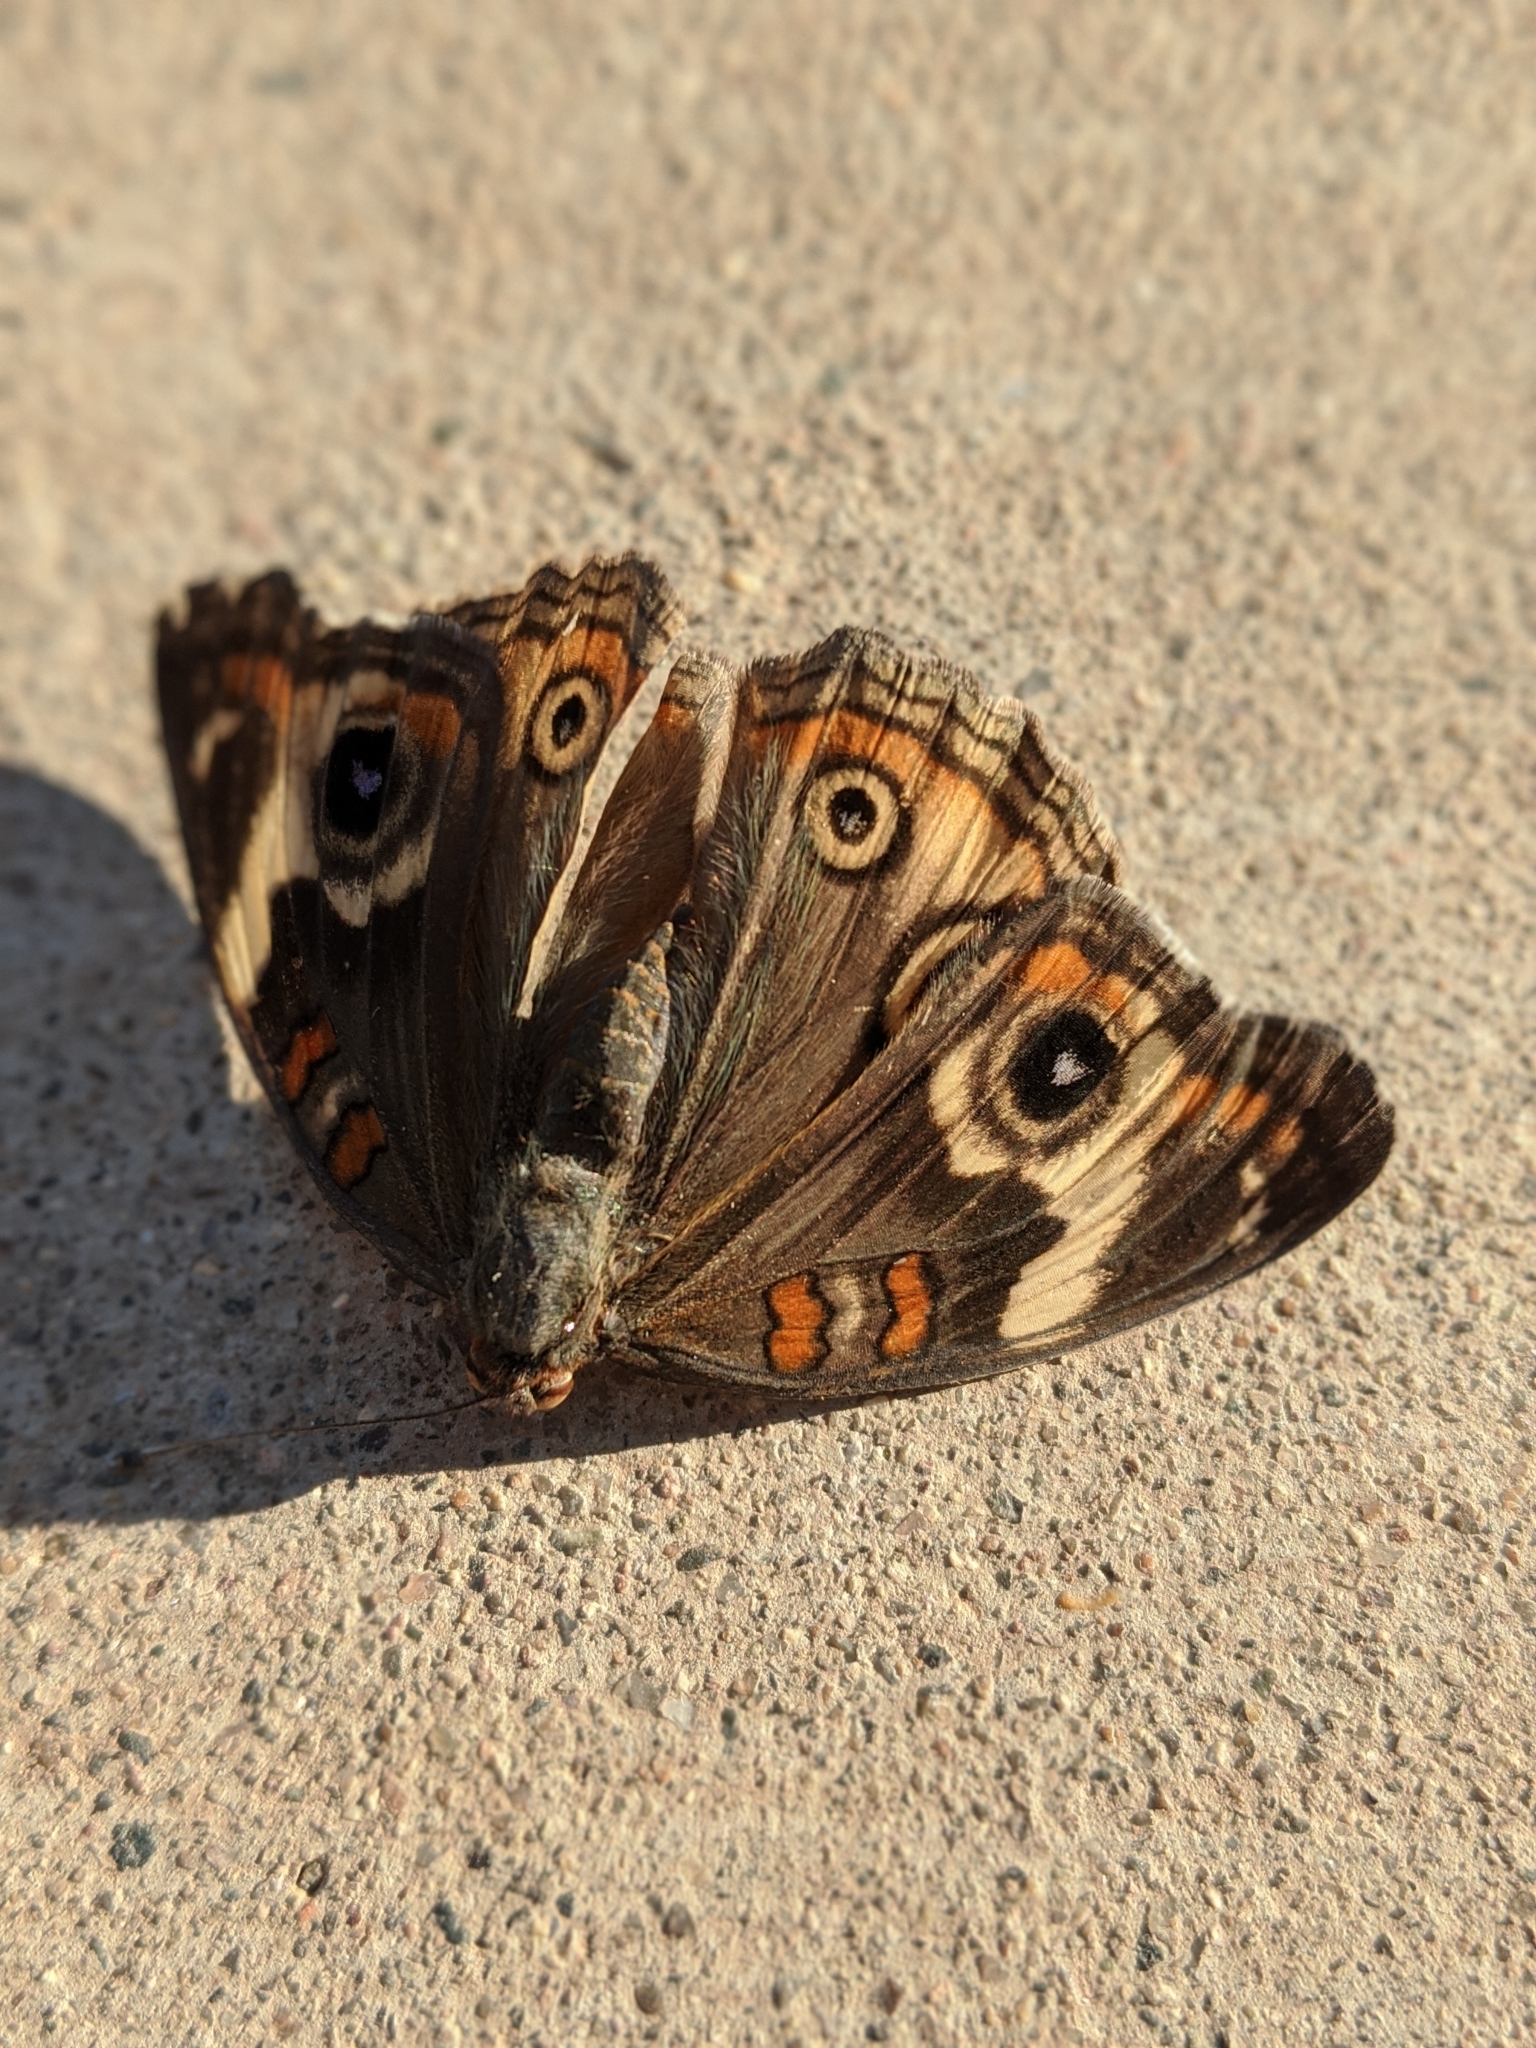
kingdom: Animalia
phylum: Arthropoda
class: Insecta
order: Lepidoptera
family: Nymphalidae
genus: Junonia
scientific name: Junonia grisea
